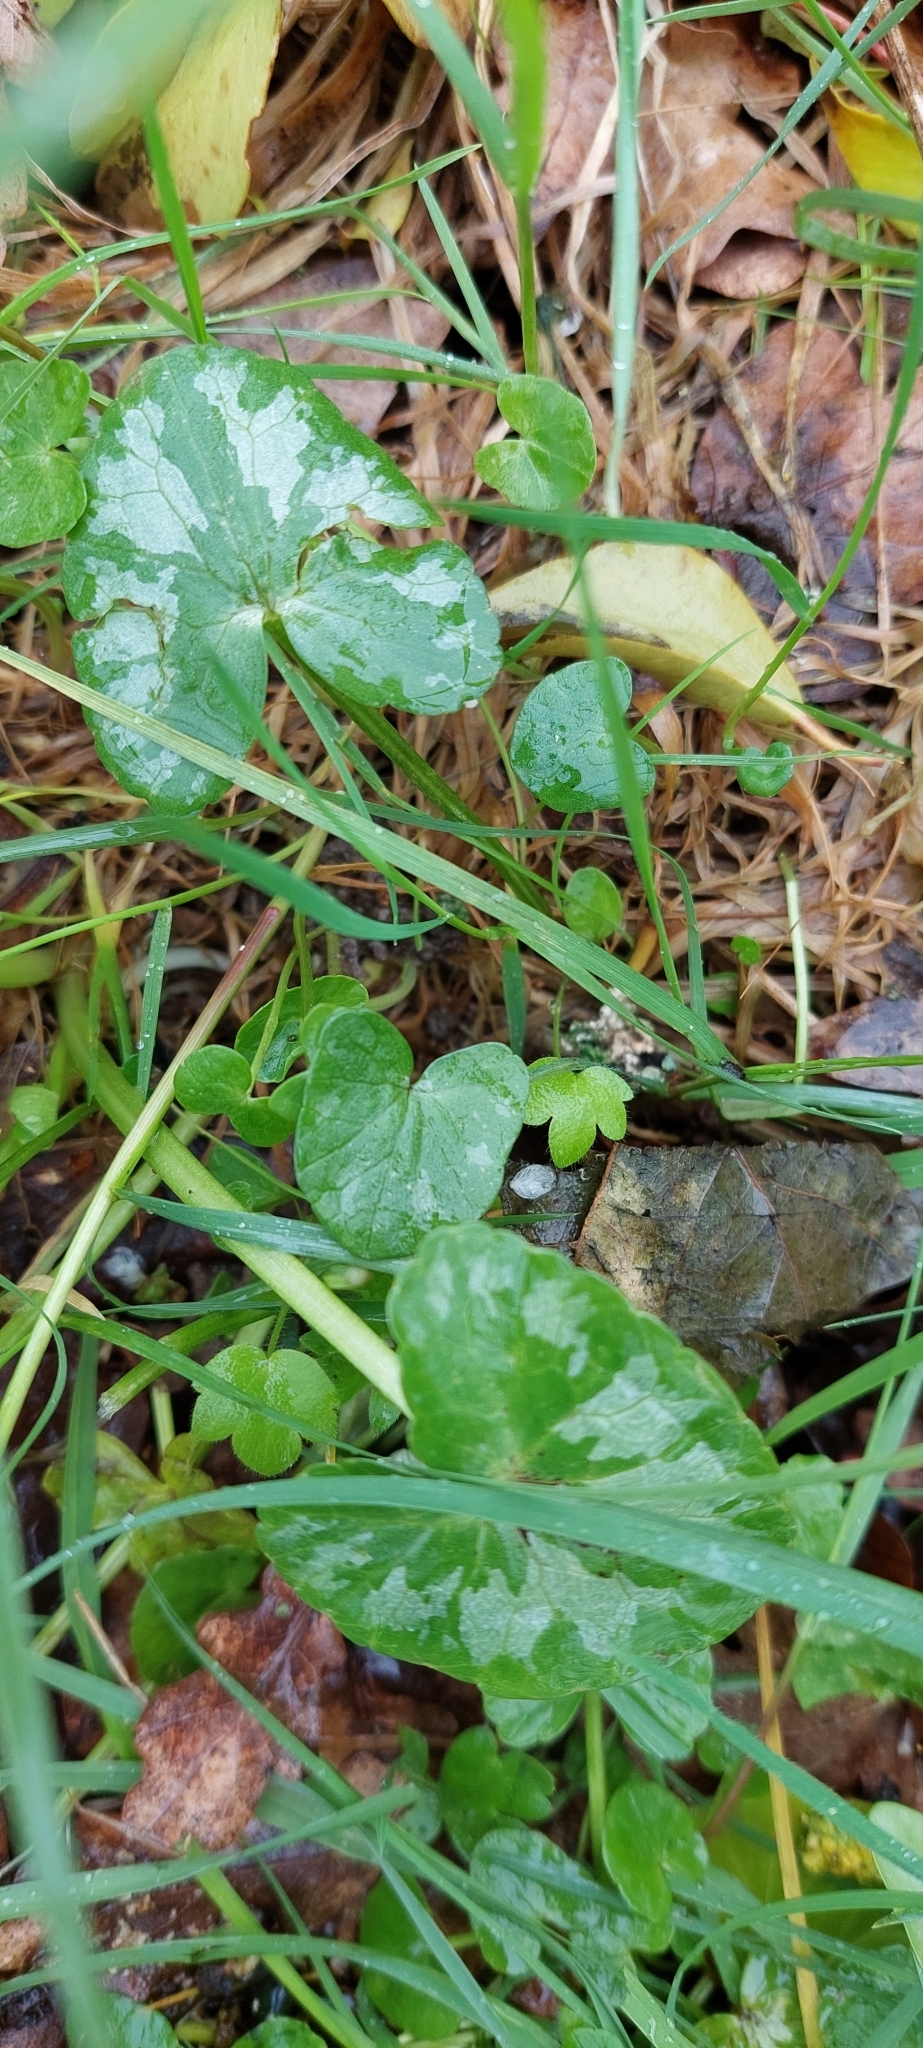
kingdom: Plantae
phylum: Tracheophyta
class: Magnoliopsida
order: Ranunculales
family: Ranunculaceae
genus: Ficaria
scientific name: Ficaria verna
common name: Lesser celandine
